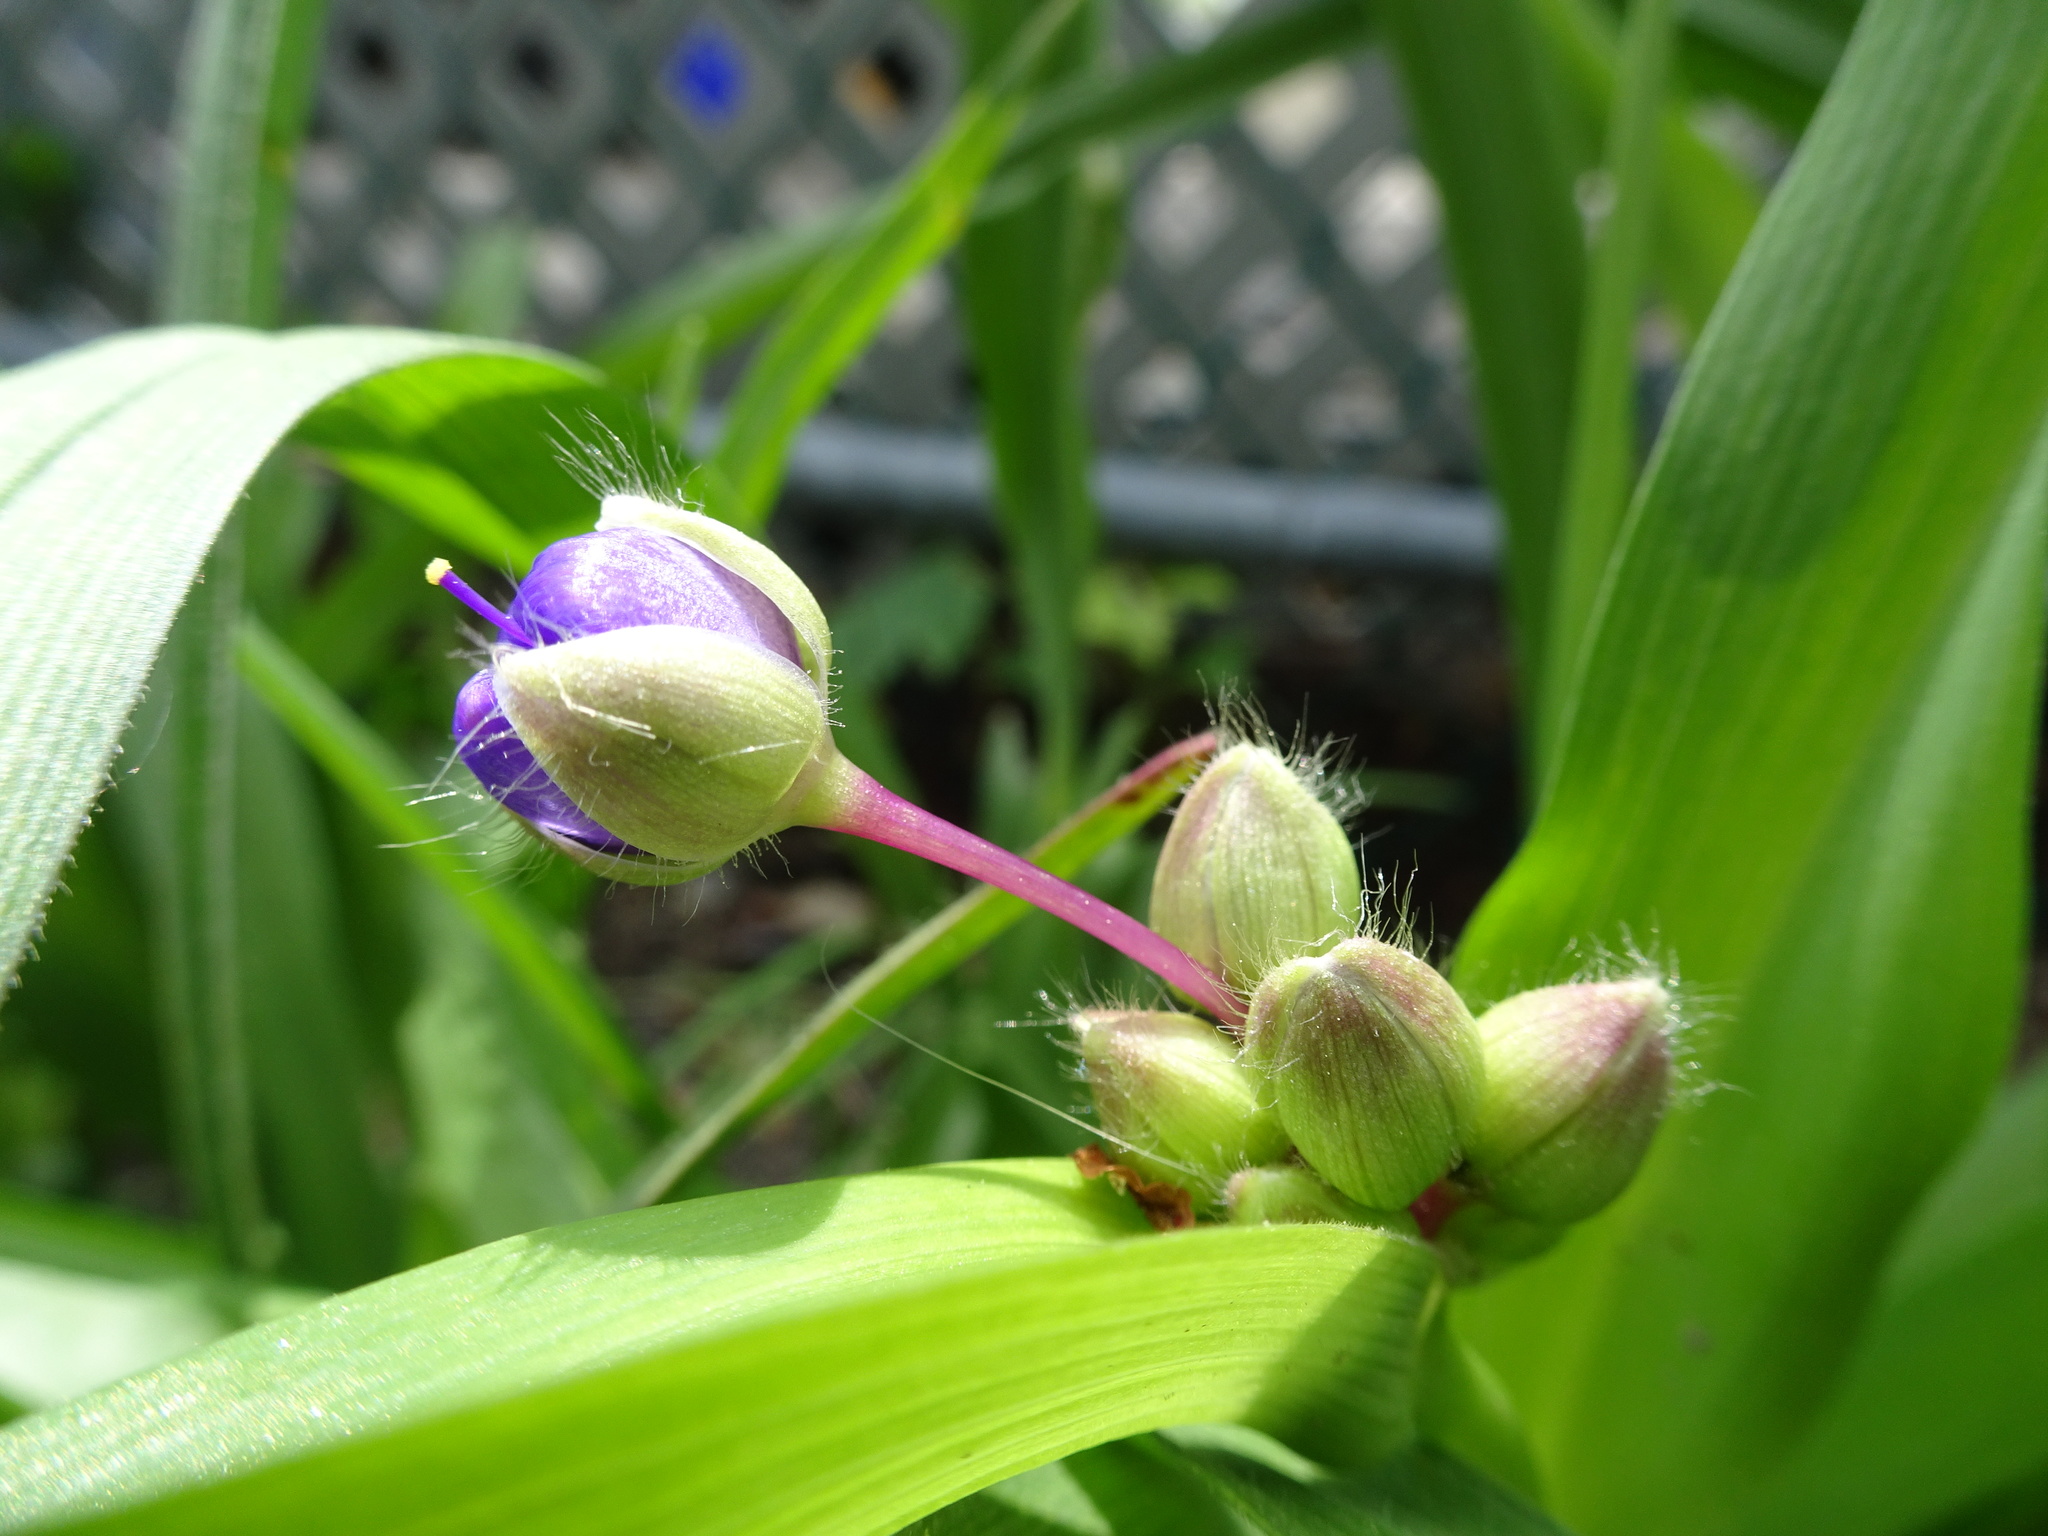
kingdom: Plantae
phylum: Tracheophyta
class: Liliopsida
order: Commelinales
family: Commelinaceae
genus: Tradescantia
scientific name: Tradescantia ohiensis
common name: Ohio spiderwort
